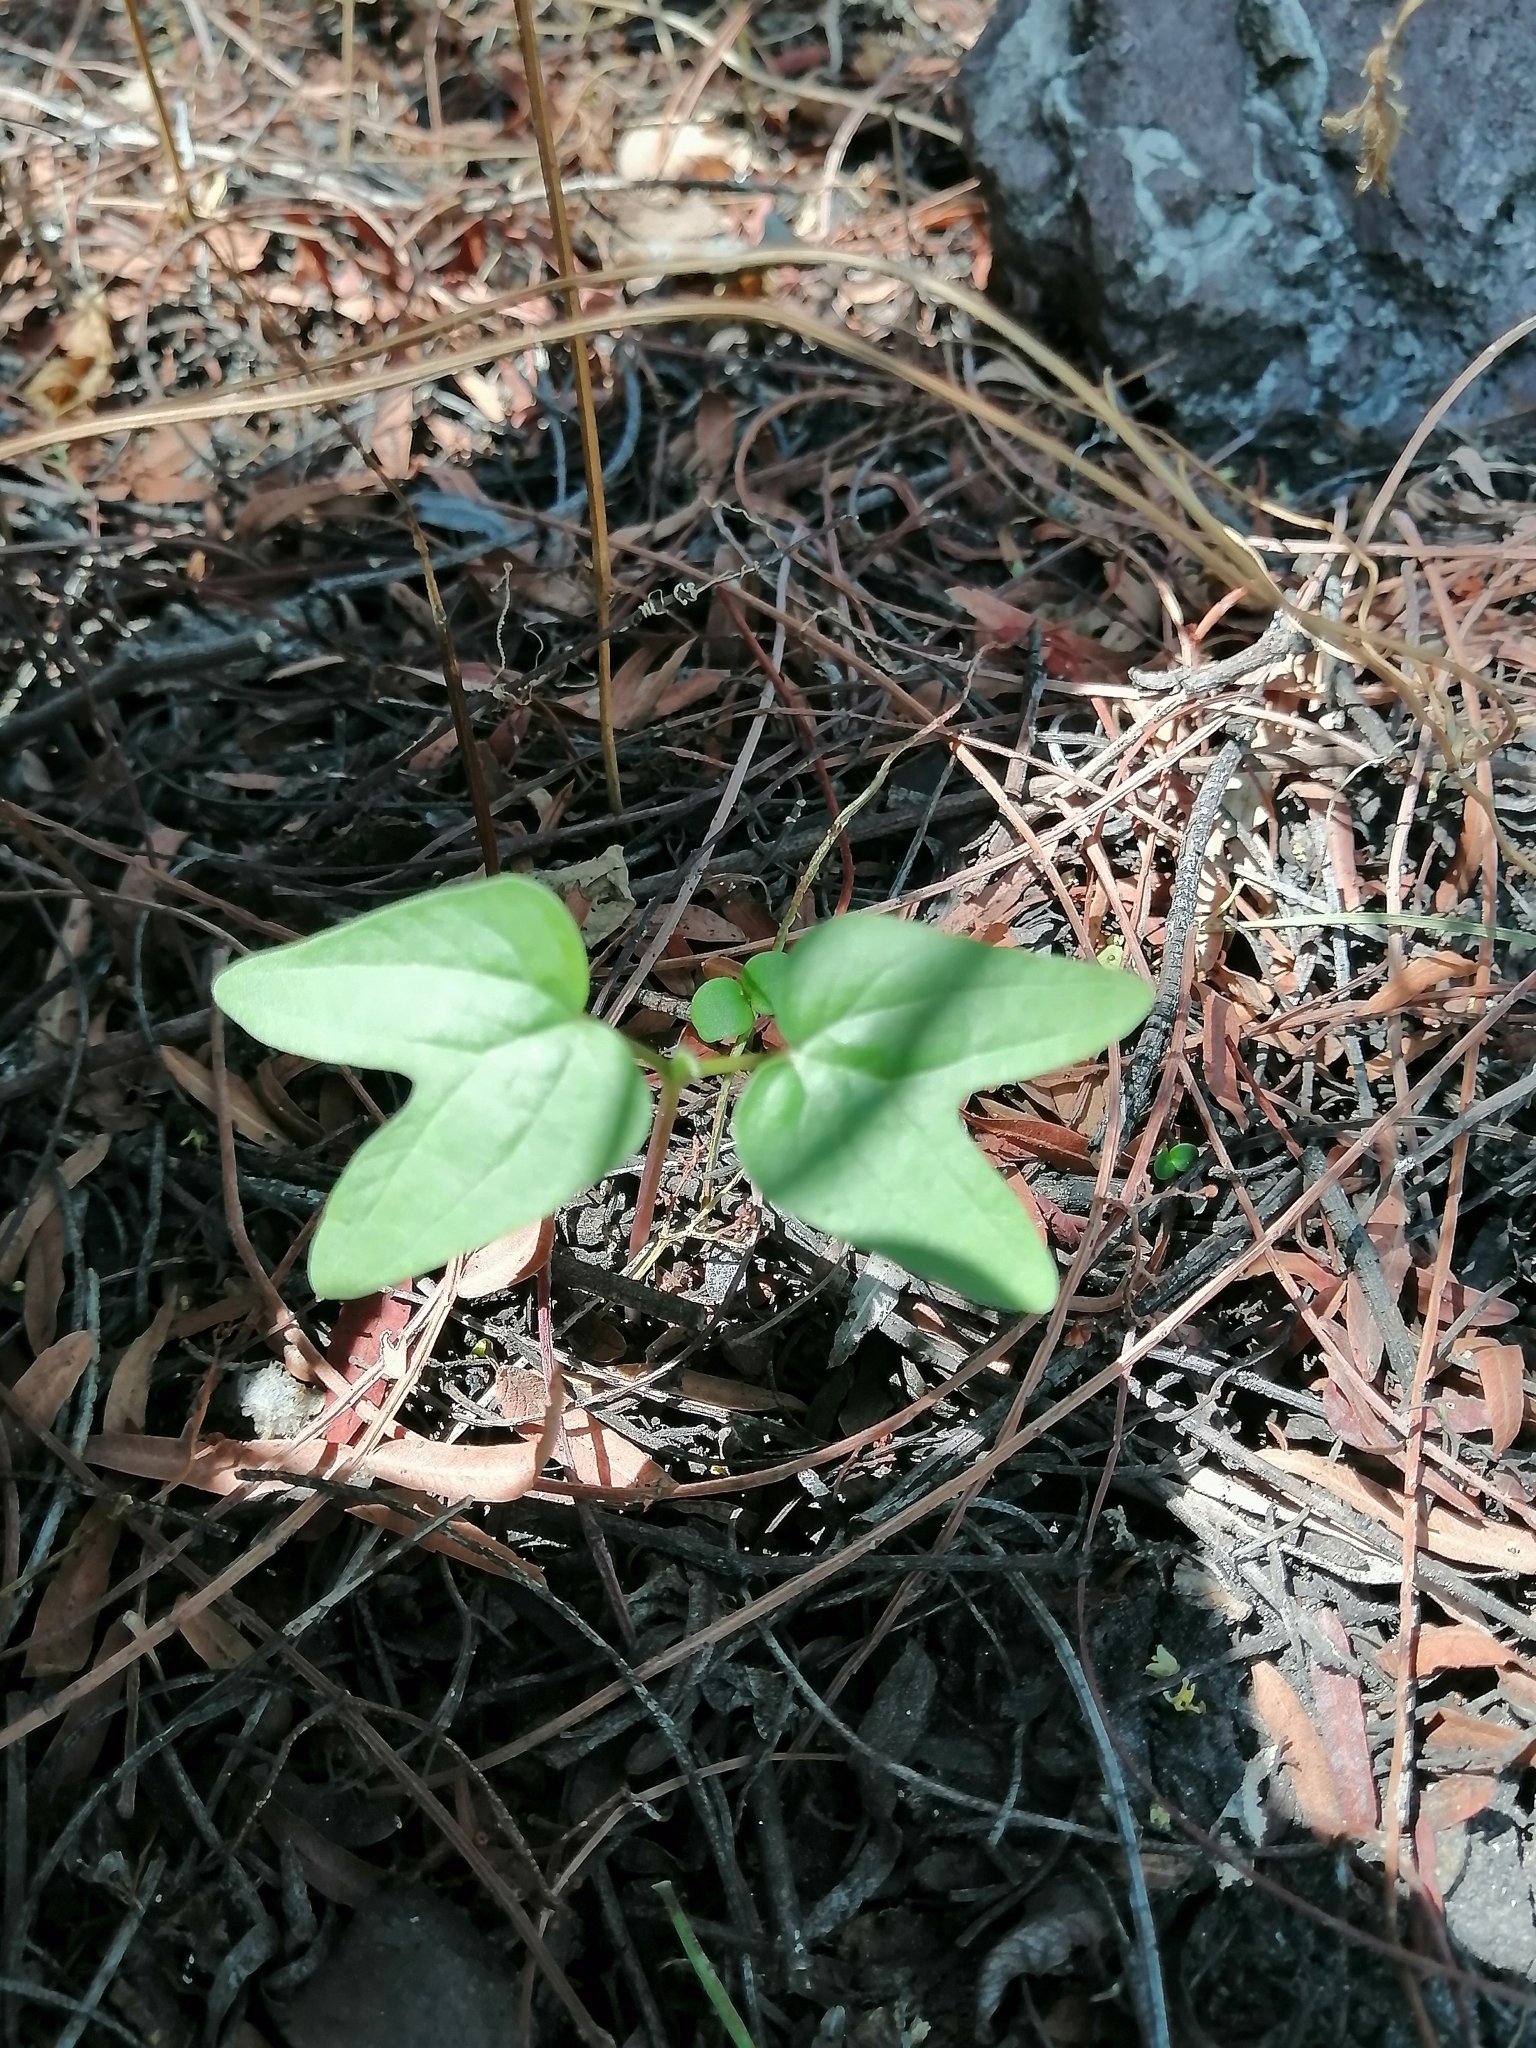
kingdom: Plantae
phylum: Tracheophyta
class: Magnoliopsida
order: Solanales
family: Convolvulaceae
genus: Ipomoea
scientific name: Ipomoea
